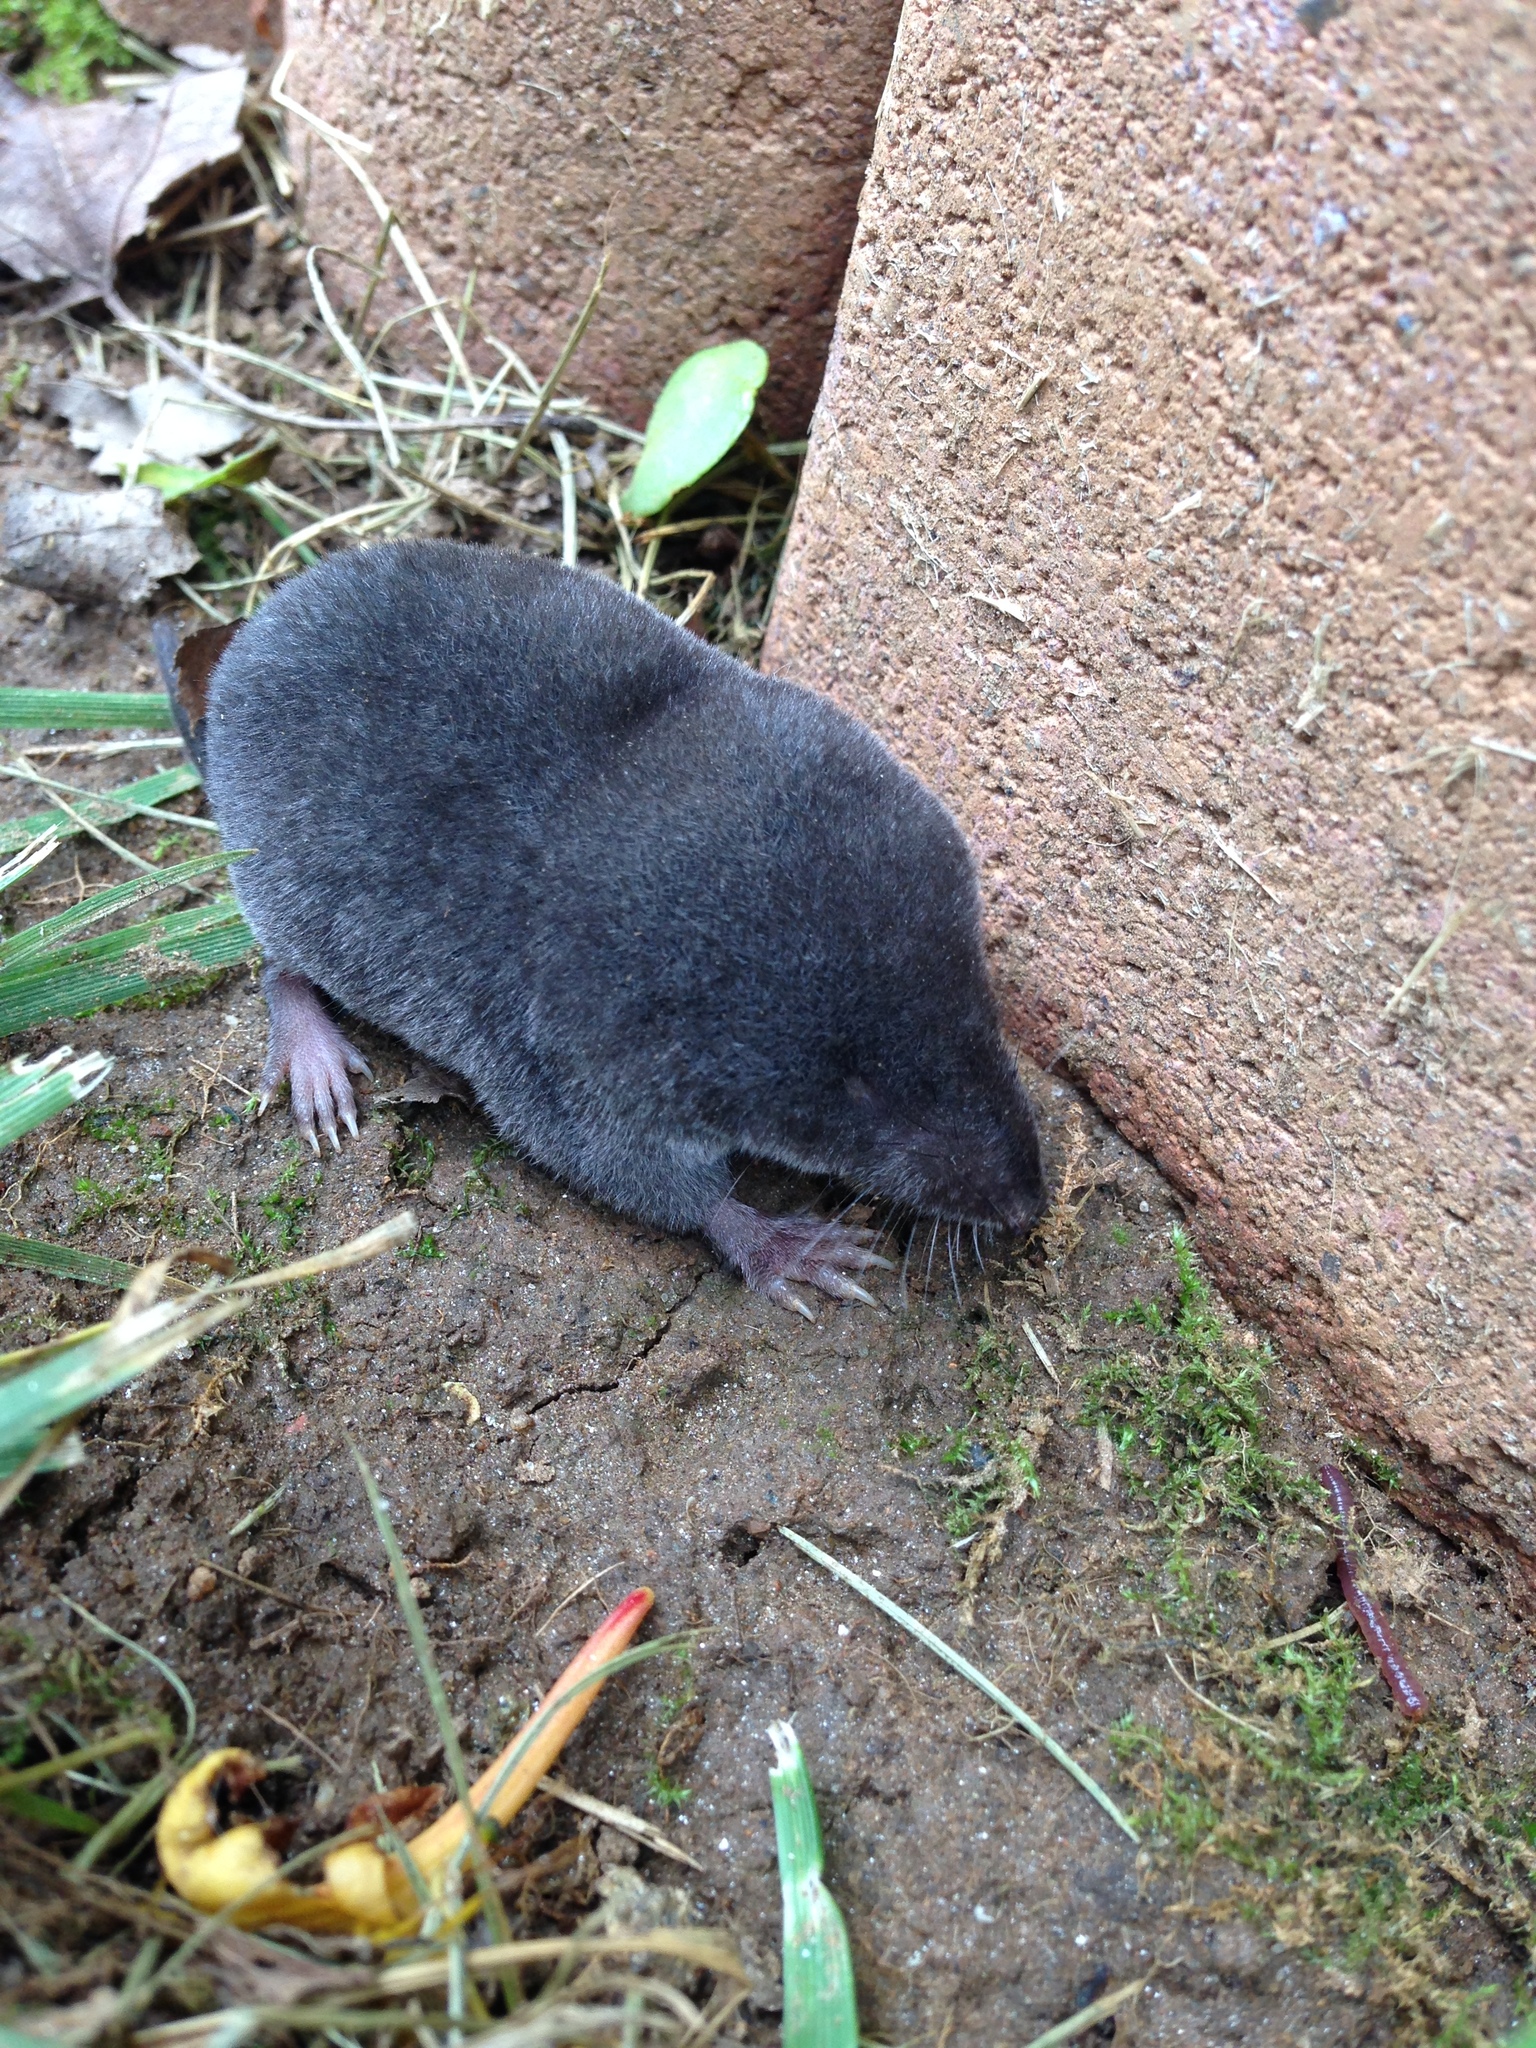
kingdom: Animalia
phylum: Chordata
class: Mammalia
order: Soricomorpha
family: Soricidae
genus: Blarina
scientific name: Blarina brevicauda
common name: Northern short-tailed shrew
